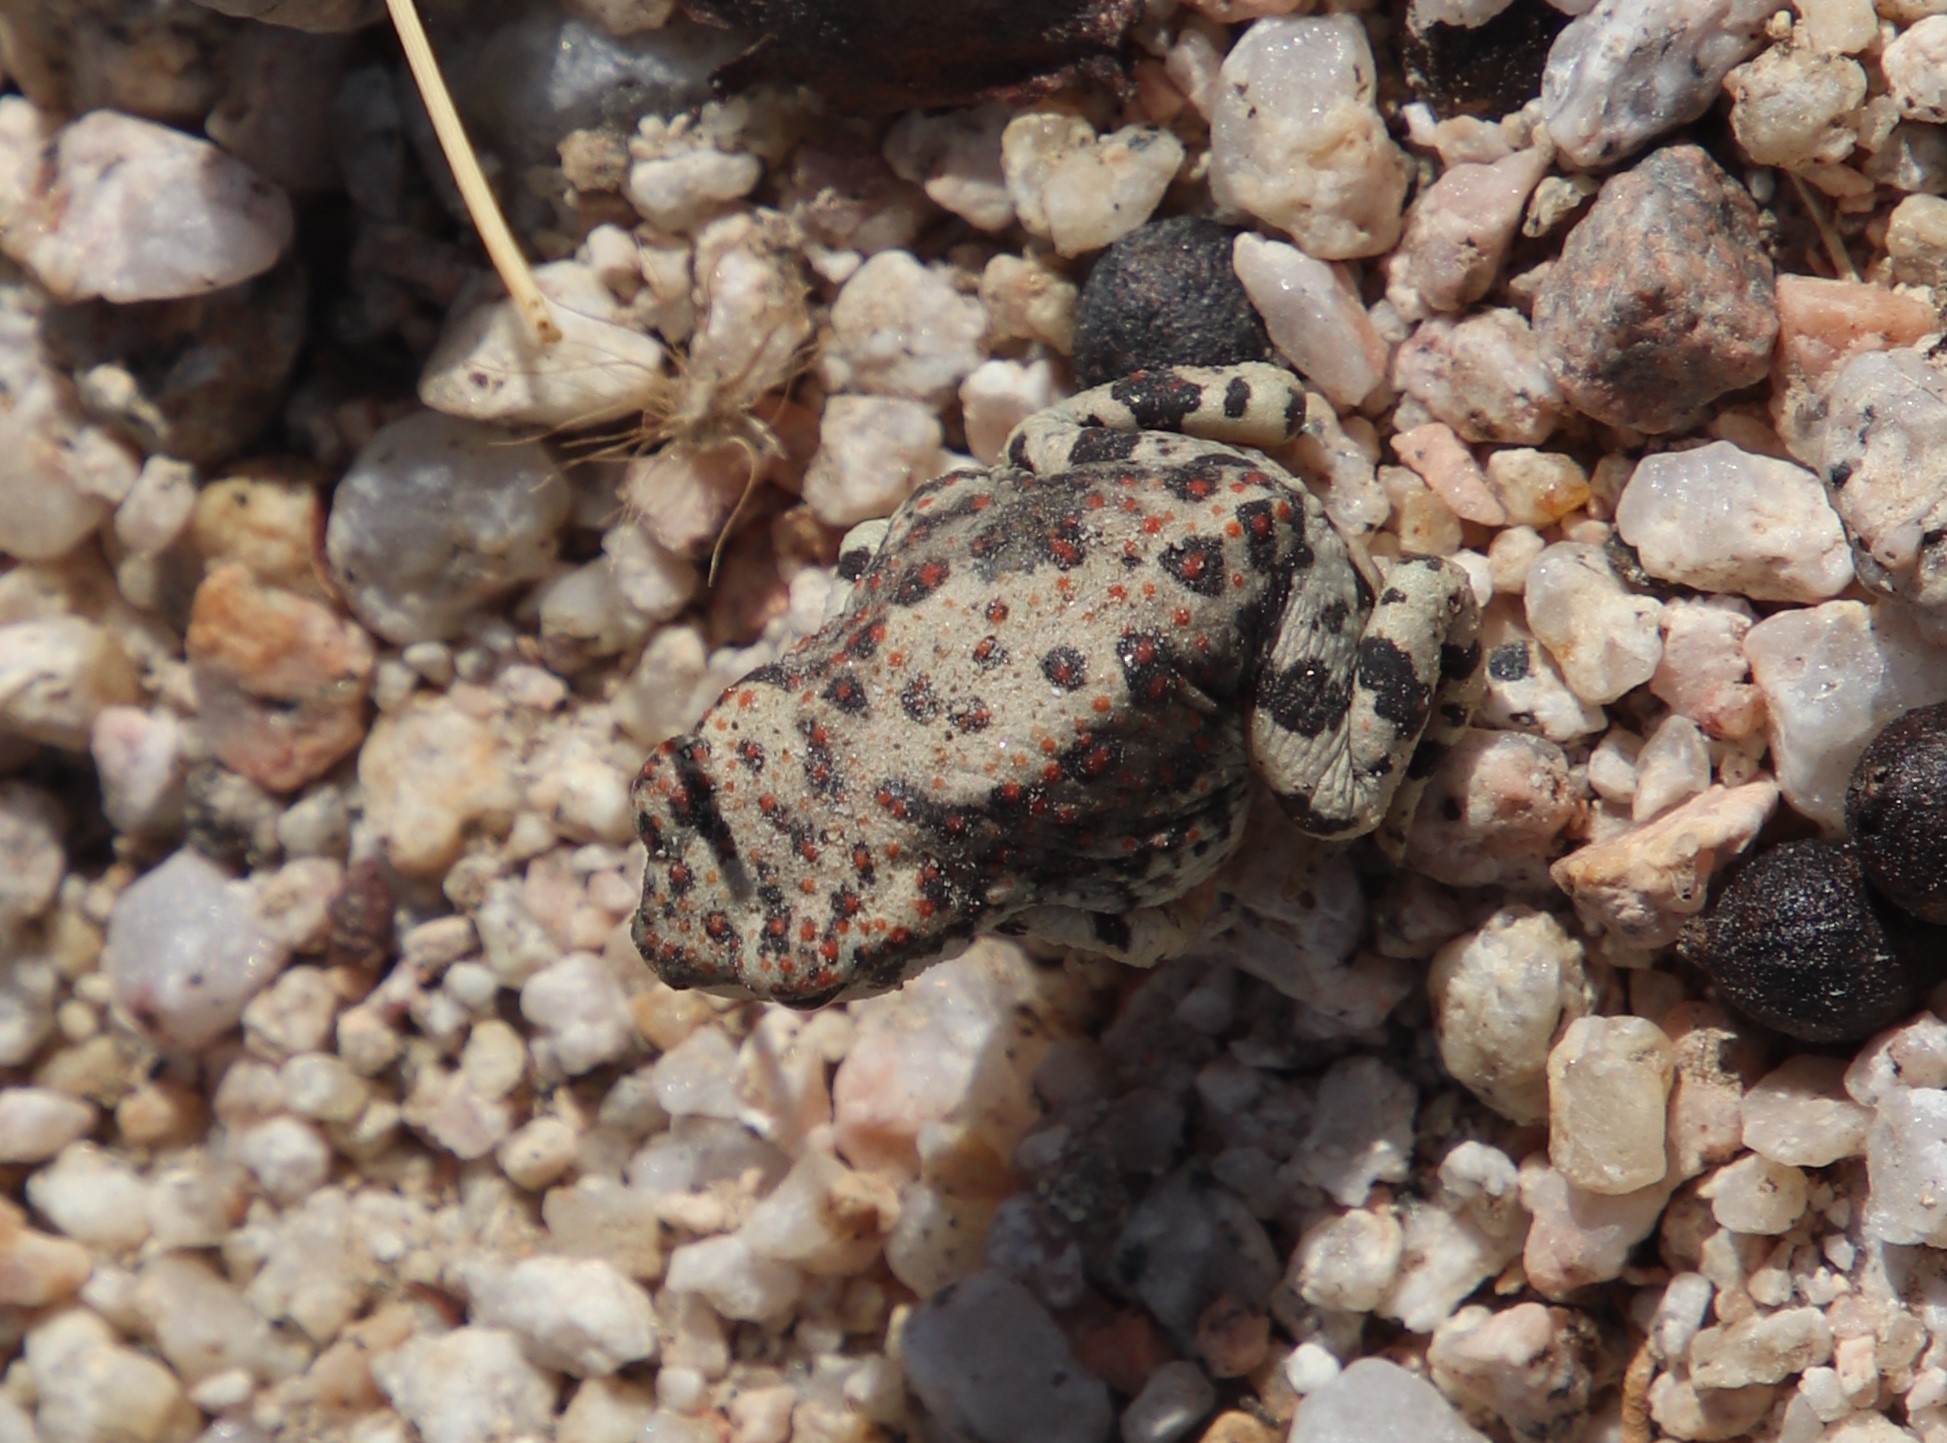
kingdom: Animalia
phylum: Chordata
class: Amphibia
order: Anura
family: Bufonidae
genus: Anaxyrus
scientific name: Anaxyrus punctatus
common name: Red-spotted toad
